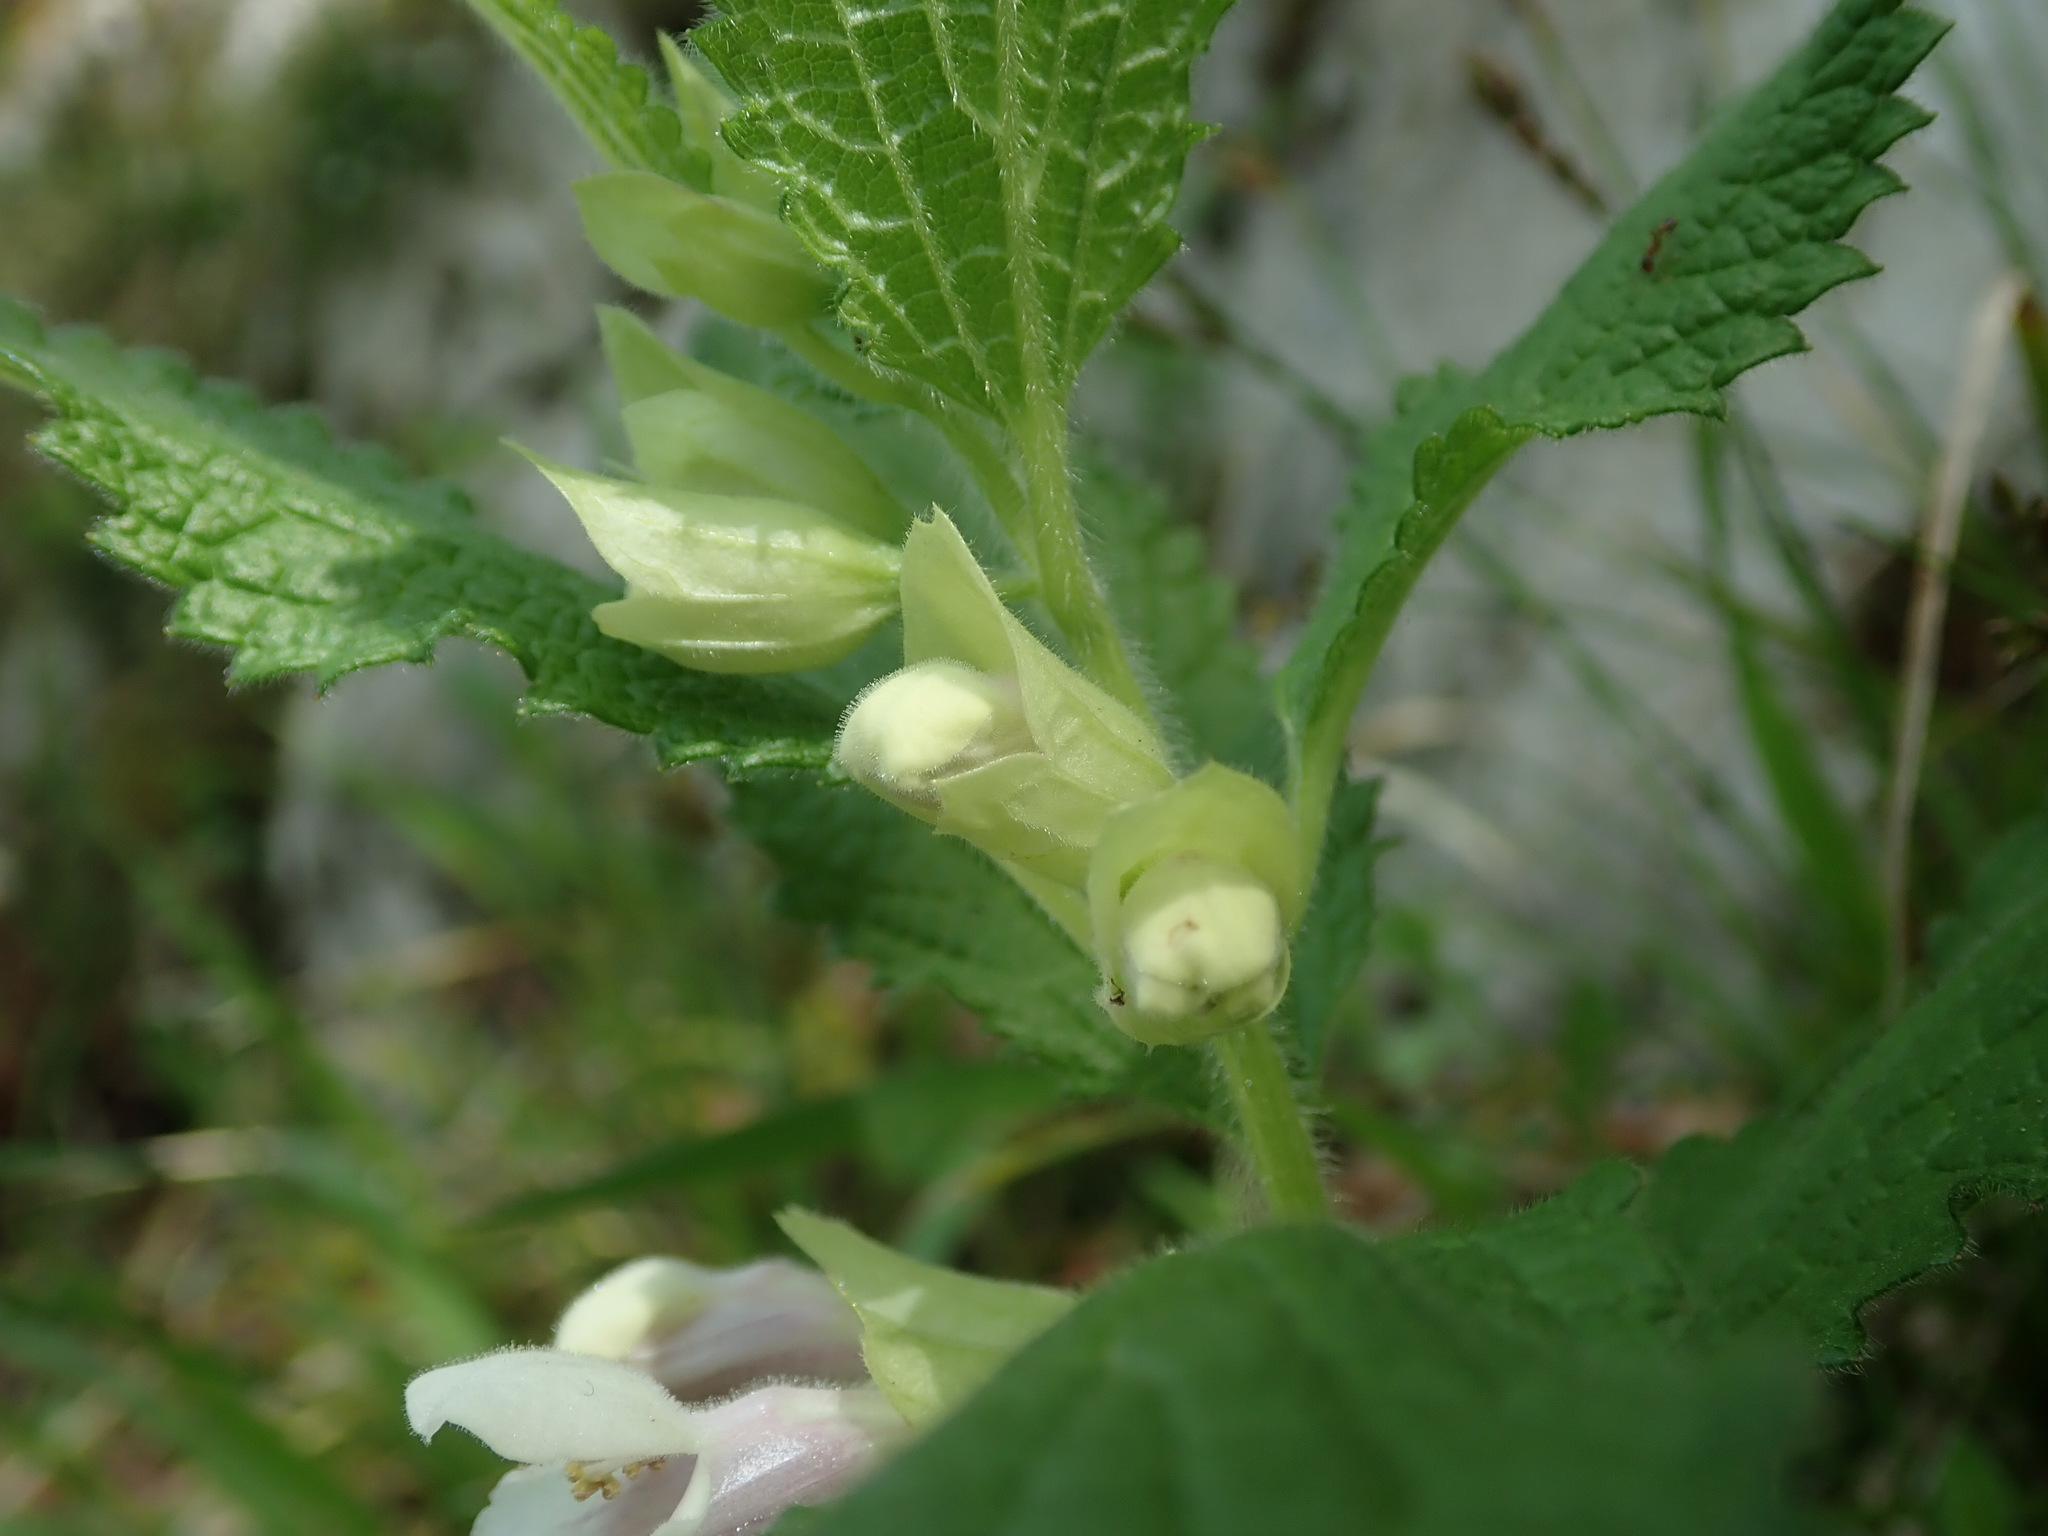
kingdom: Plantae
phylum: Tracheophyta
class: Magnoliopsida
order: Lamiales
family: Lamiaceae
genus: Melittis
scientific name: Melittis melissophyllum
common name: Bastard balm
